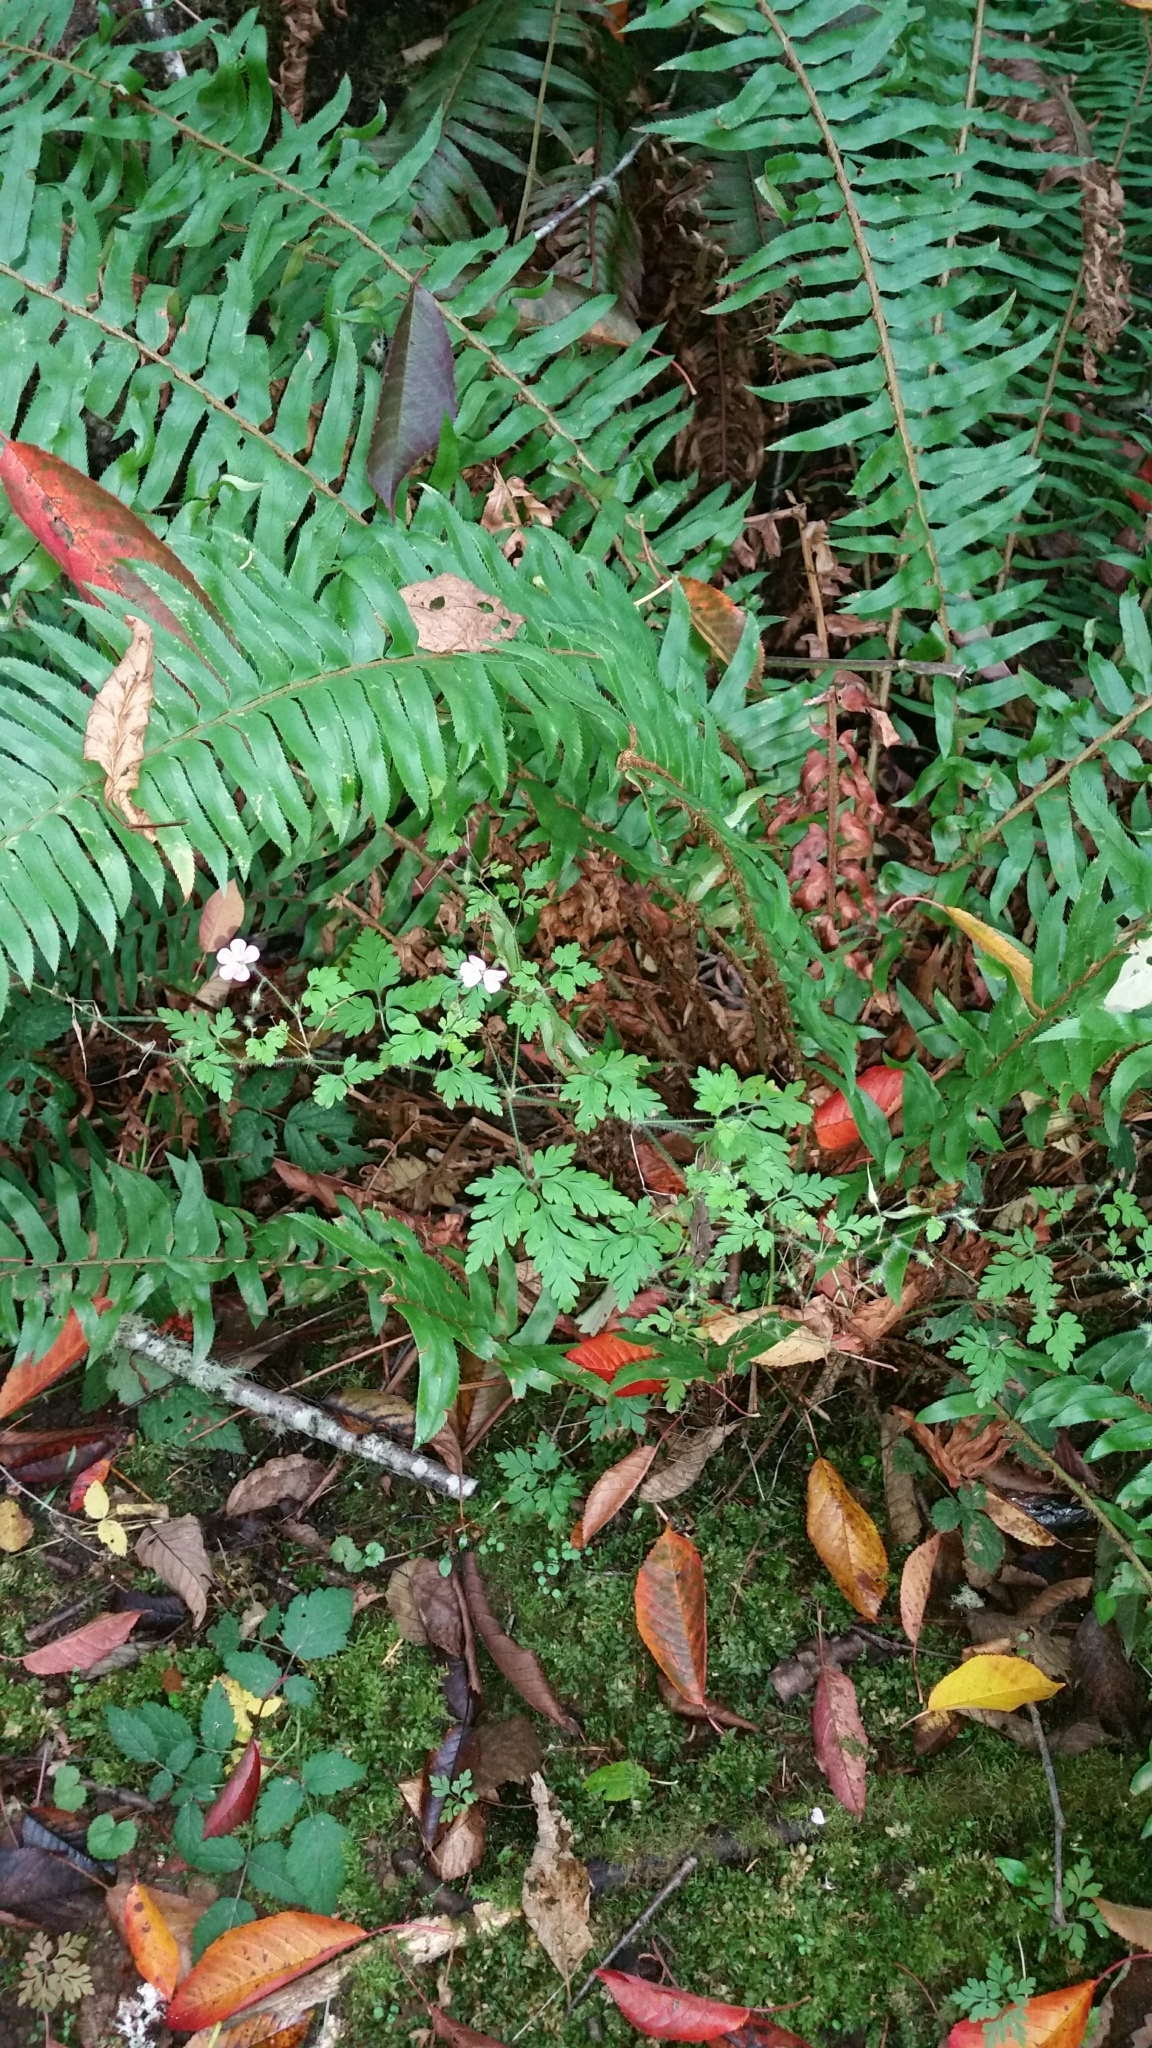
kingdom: Plantae
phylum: Tracheophyta
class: Magnoliopsida
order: Geraniales
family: Geraniaceae
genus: Geranium
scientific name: Geranium robertianum
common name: Herb-robert
